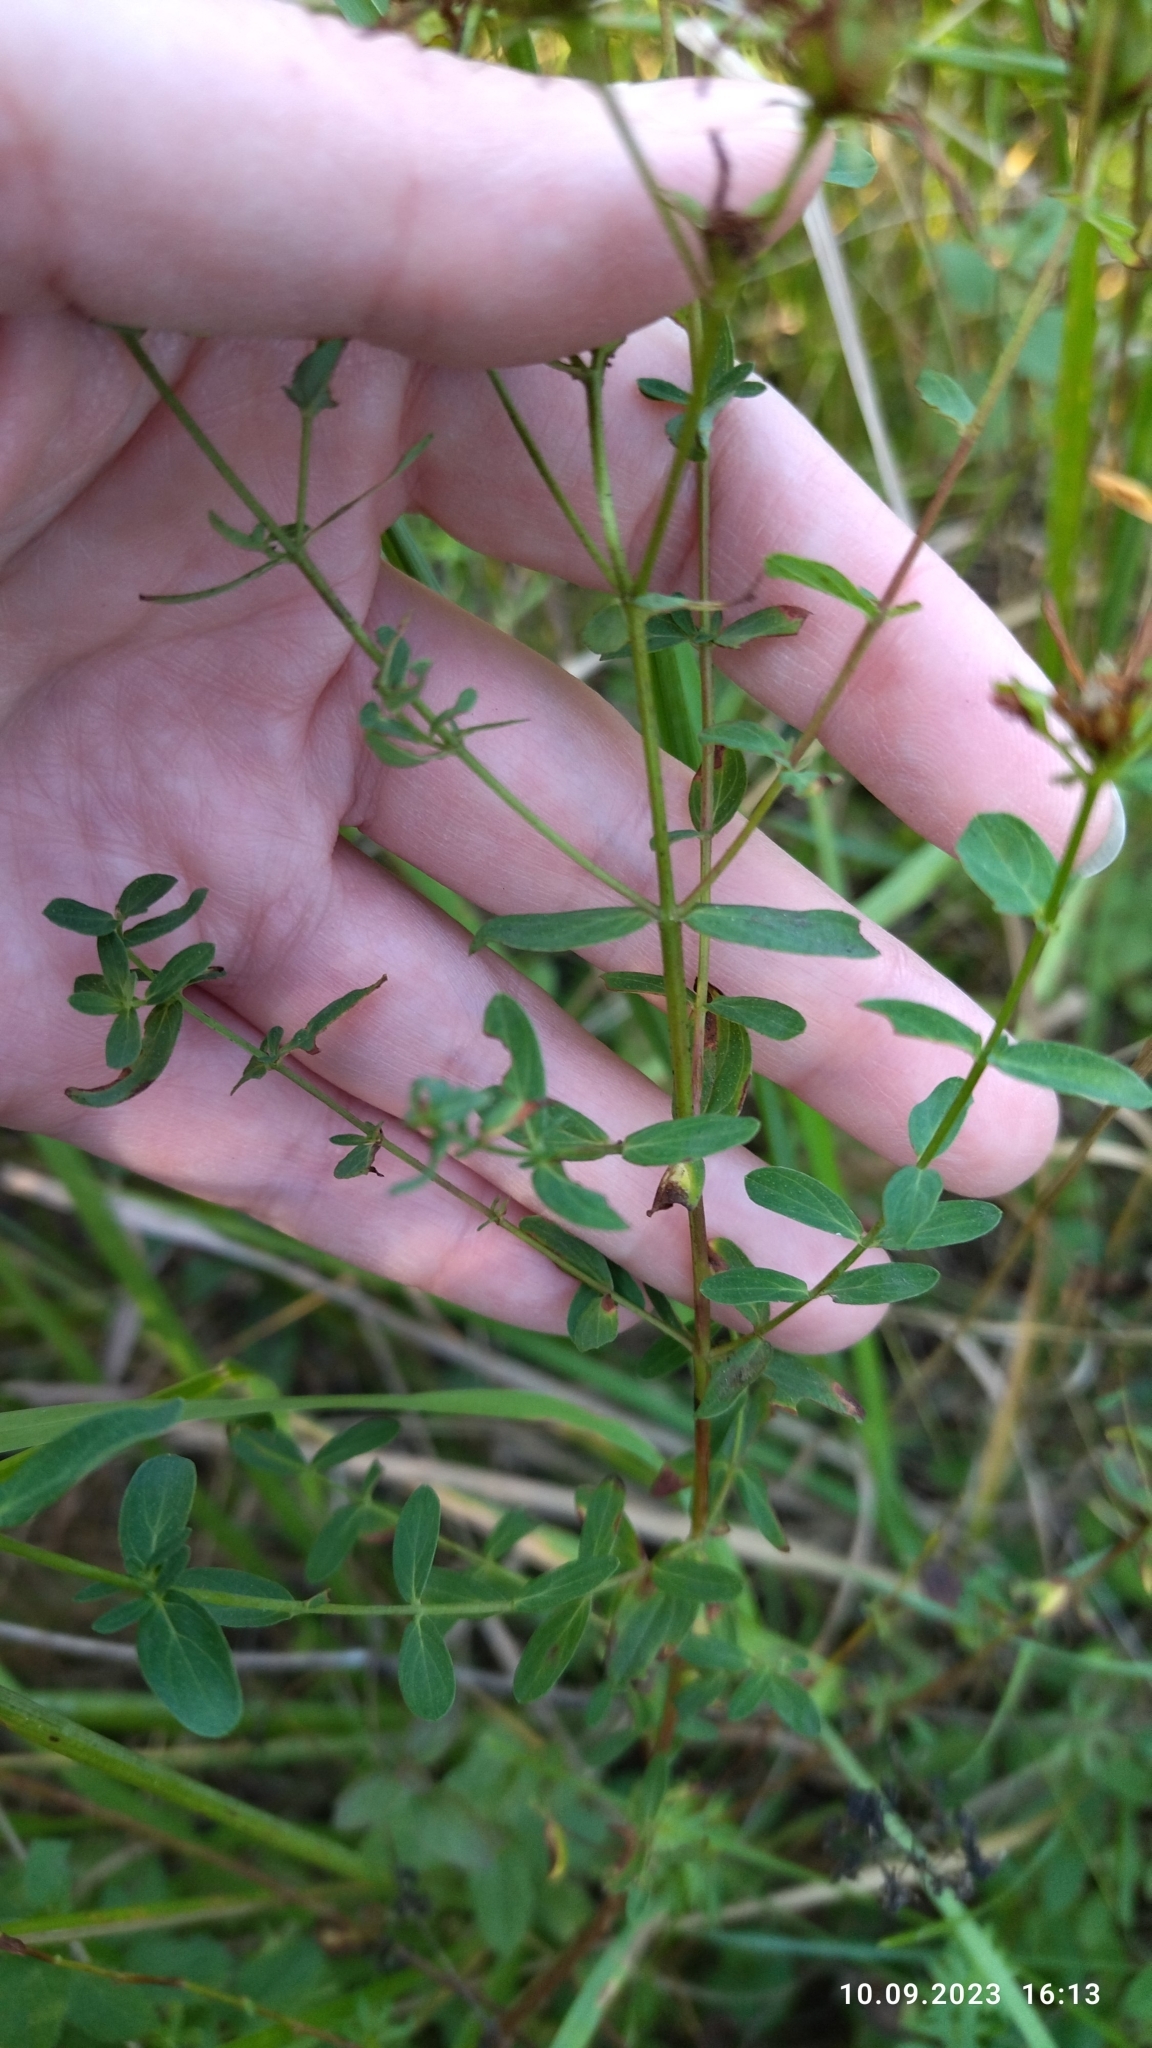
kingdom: Plantae
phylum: Tracheophyta
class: Magnoliopsida
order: Malpighiales
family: Hypericaceae
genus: Hypericum
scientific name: Hypericum perforatum
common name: Common st. johnswort
